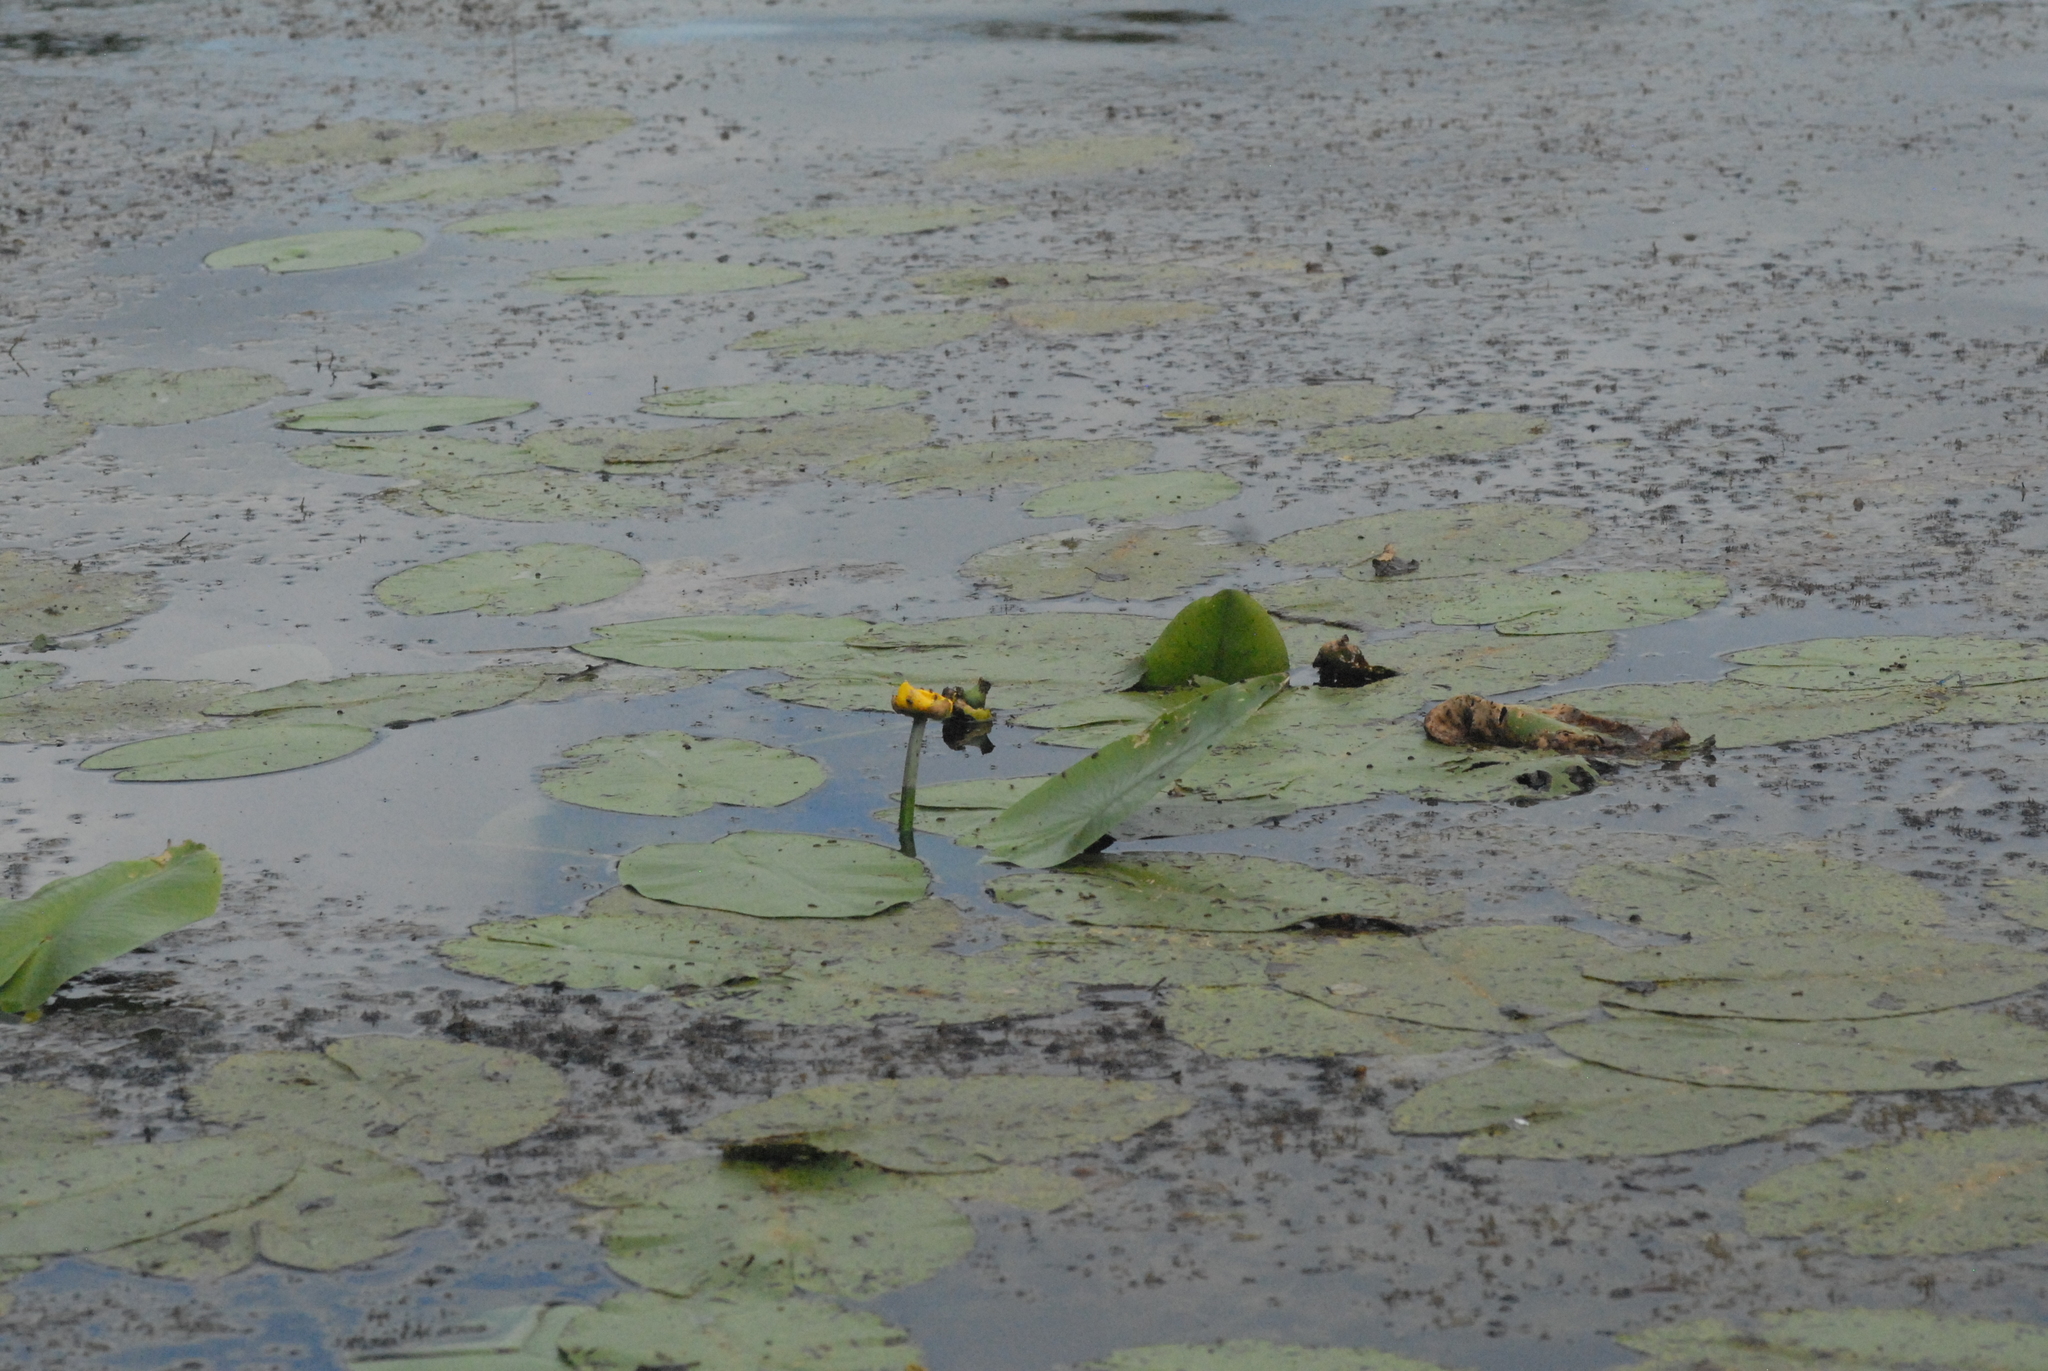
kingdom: Plantae
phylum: Tracheophyta
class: Magnoliopsida
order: Nymphaeales
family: Nymphaeaceae
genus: Nuphar
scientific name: Nuphar lutea
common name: Yellow water-lily
